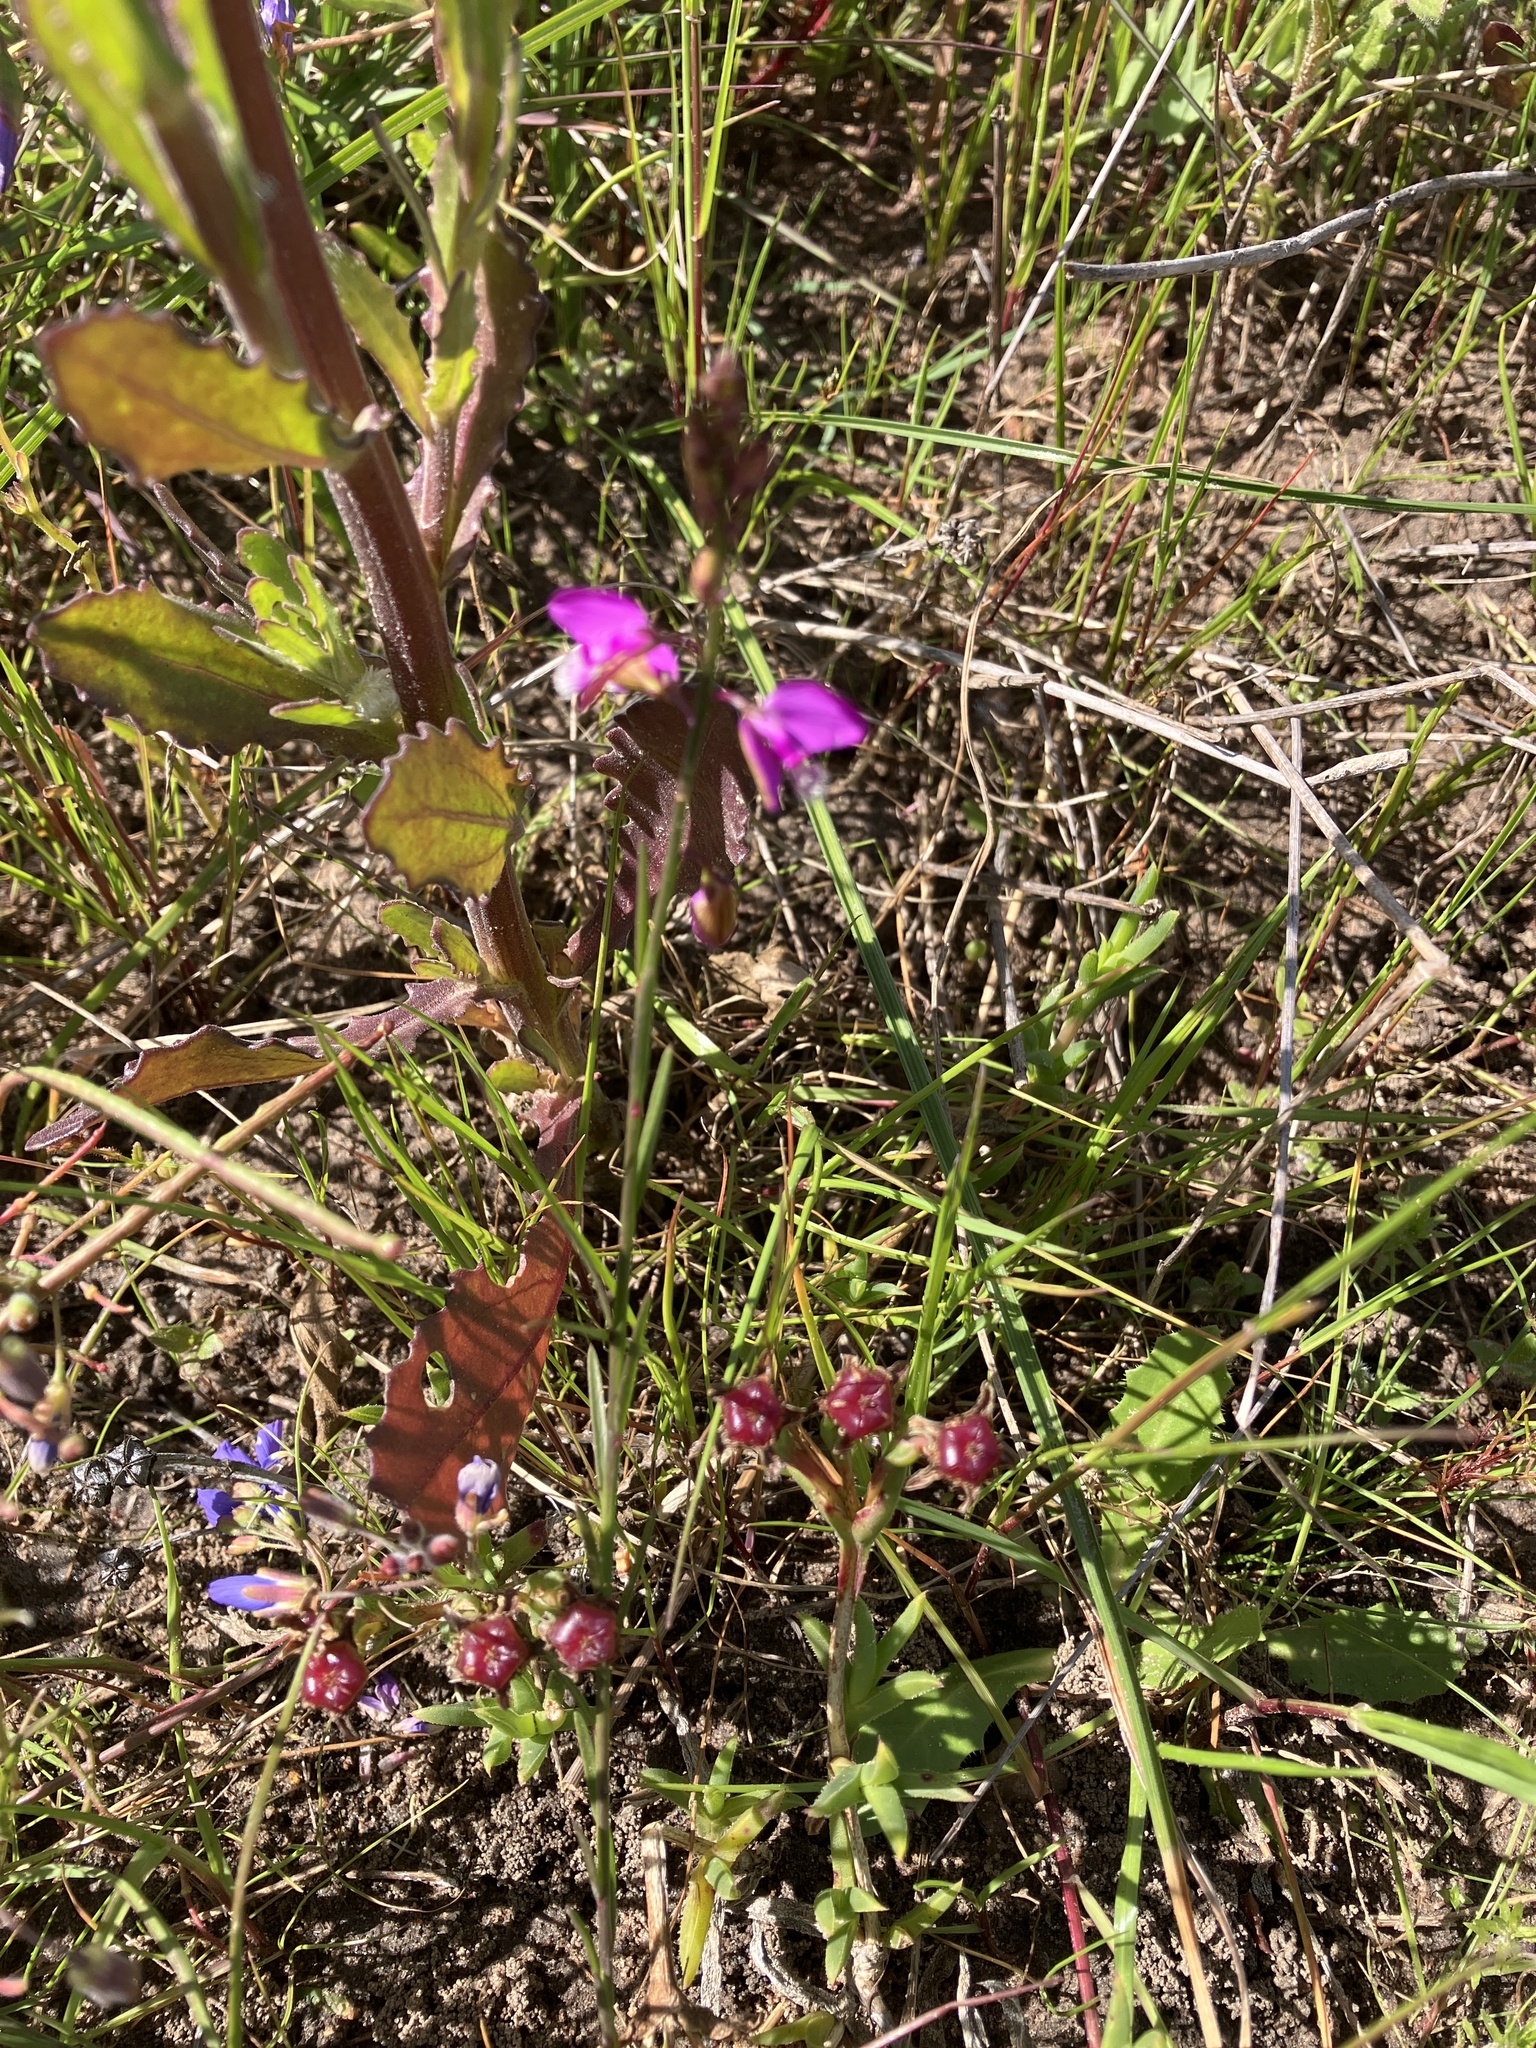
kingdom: Plantae
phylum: Tracheophyta
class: Magnoliopsida
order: Fabales
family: Polygalaceae
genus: Polygala
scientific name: Polygala garcini
